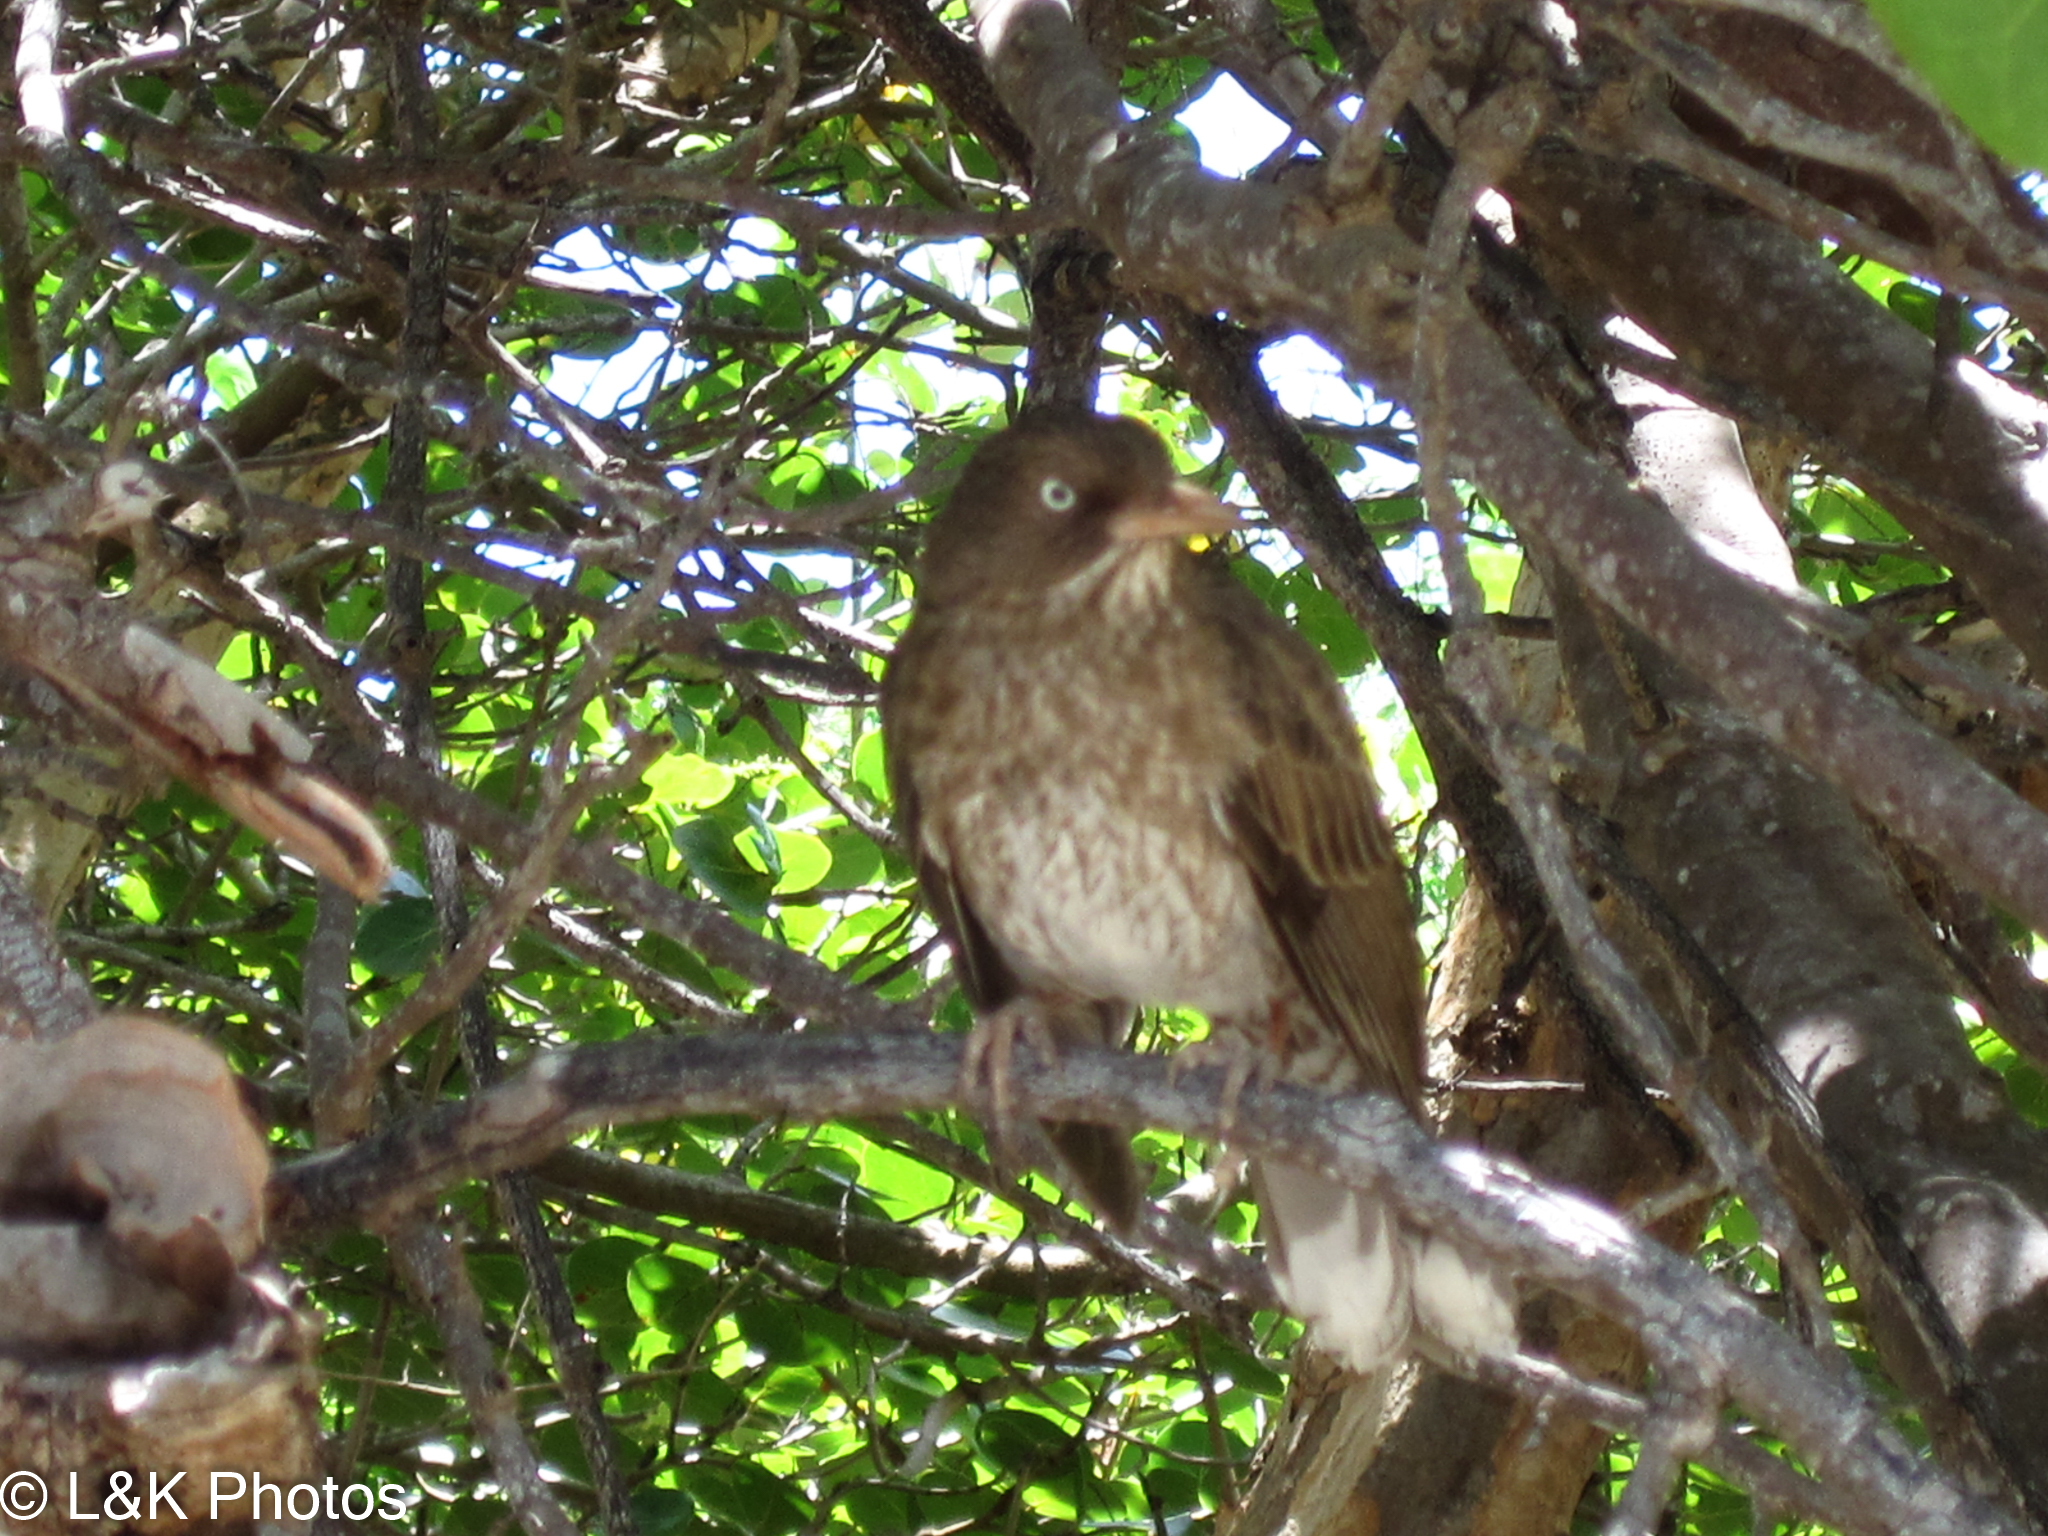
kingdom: Animalia
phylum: Chordata
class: Aves
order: Passeriformes
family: Mimidae
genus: Margarops
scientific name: Margarops fuscatus
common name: Pearly-eyed thrasher
